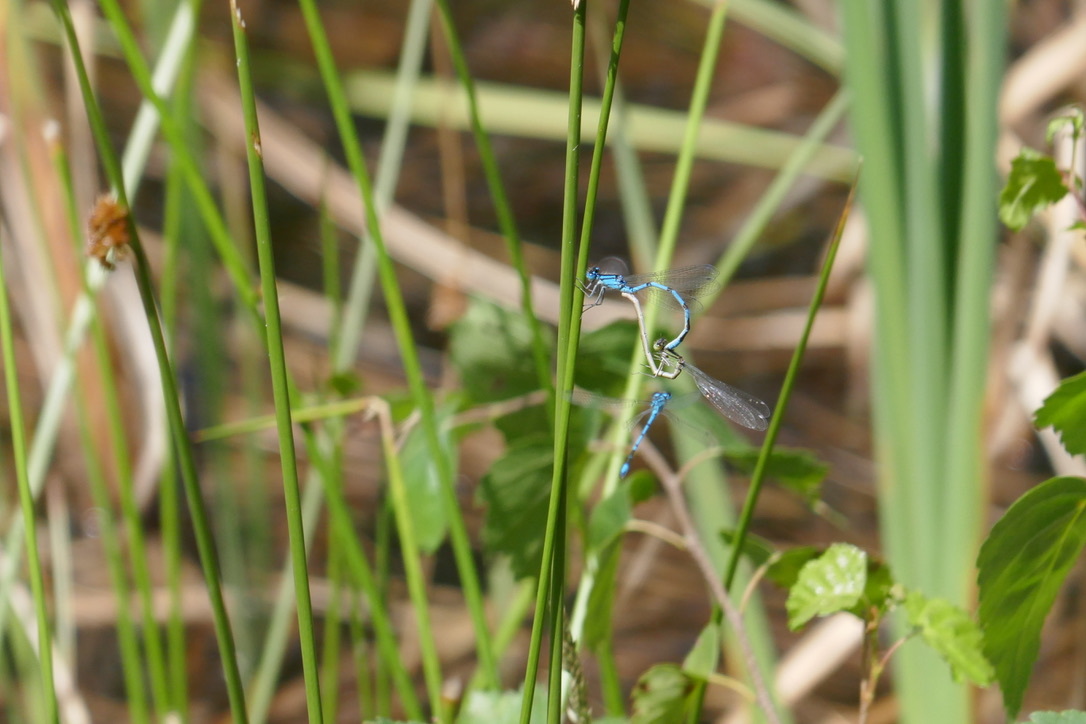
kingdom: Animalia
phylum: Arthropoda
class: Insecta
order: Odonata
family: Coenagrionidae
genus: Enallagma
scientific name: Enallagma cyathigerum
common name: Common blue damselfly
